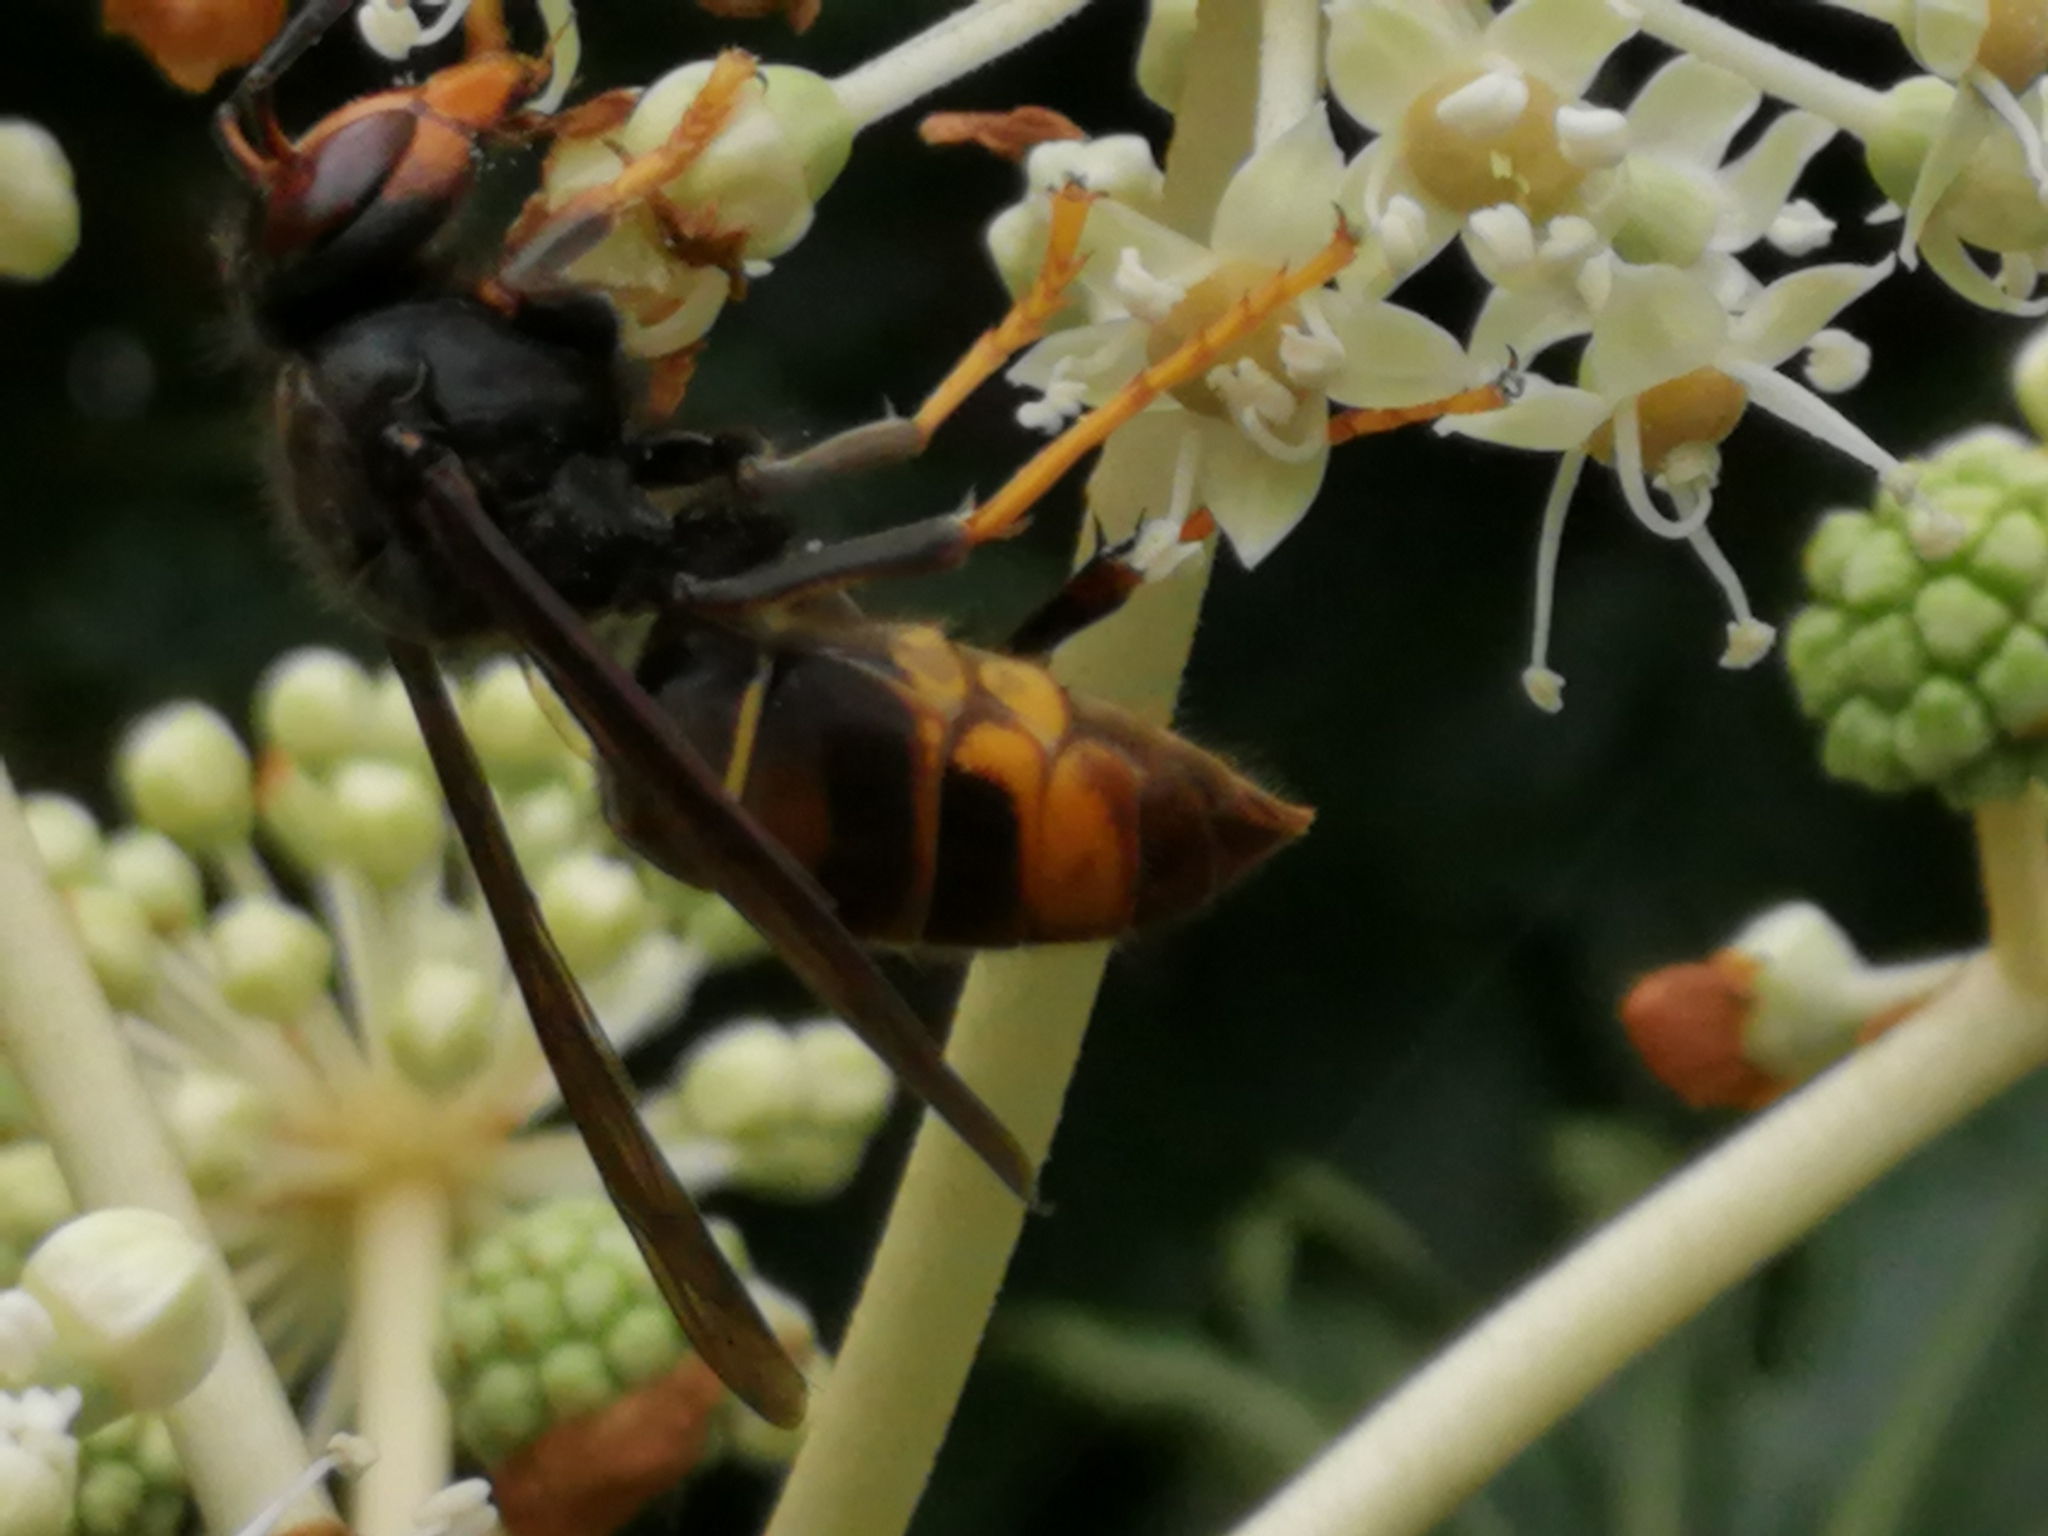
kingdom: Animalia
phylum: Arthropoda
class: Insecta
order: Hymenoptera
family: Vespidae
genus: Vespa
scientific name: Vespa velutina
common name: Asian hornet
